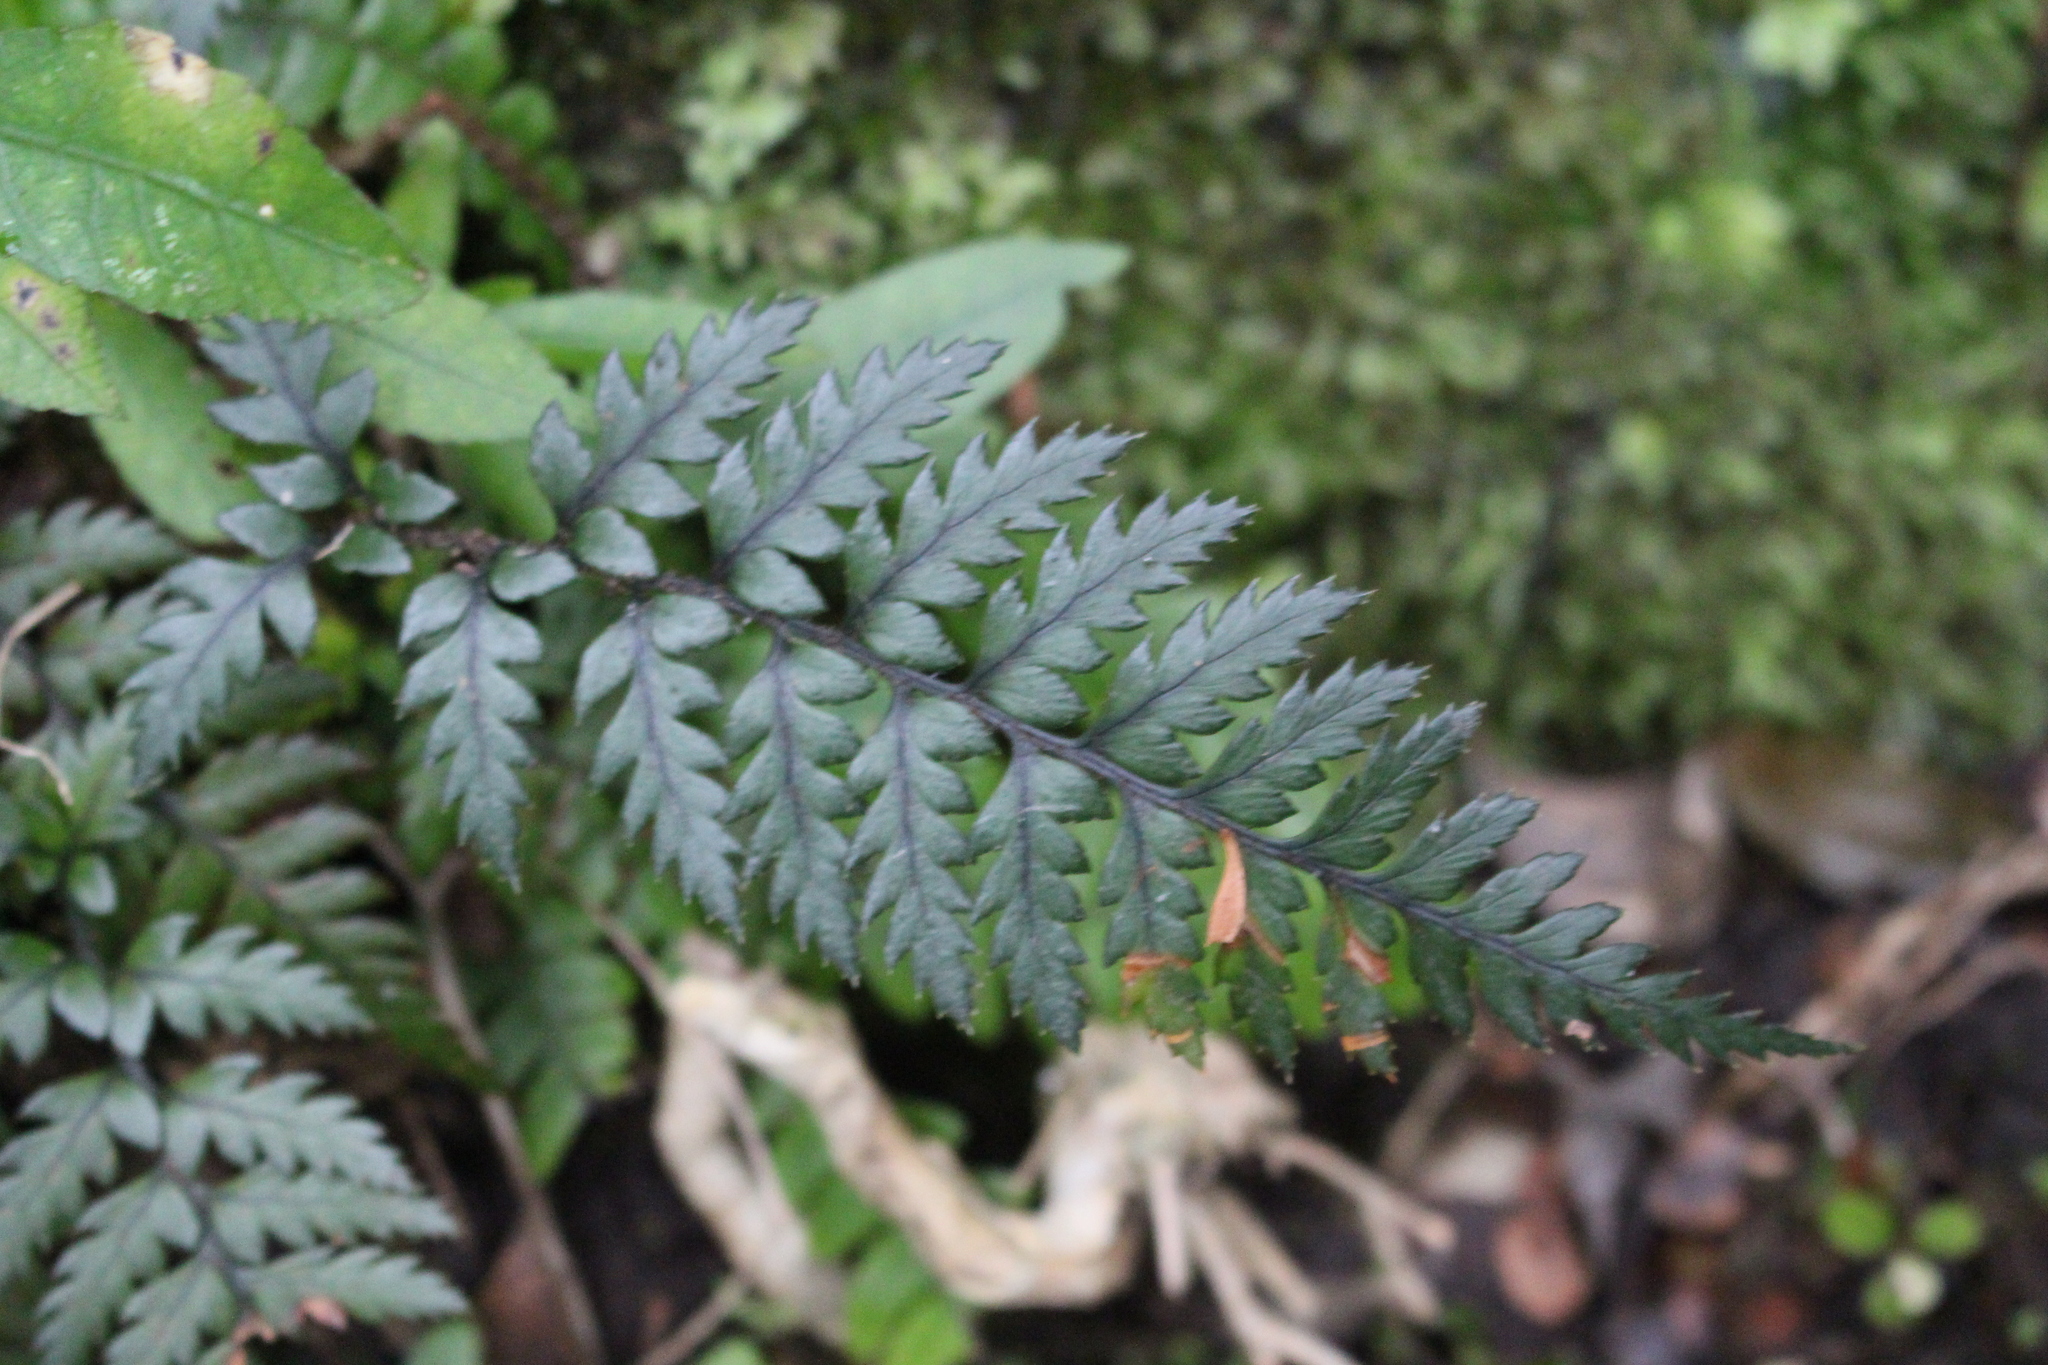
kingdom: Plantae
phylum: Tracheophyta
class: Polypodiopsida
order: Polypodiales
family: Dryopteridaceae
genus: Polystichum
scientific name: Polystichum neozelandicum
